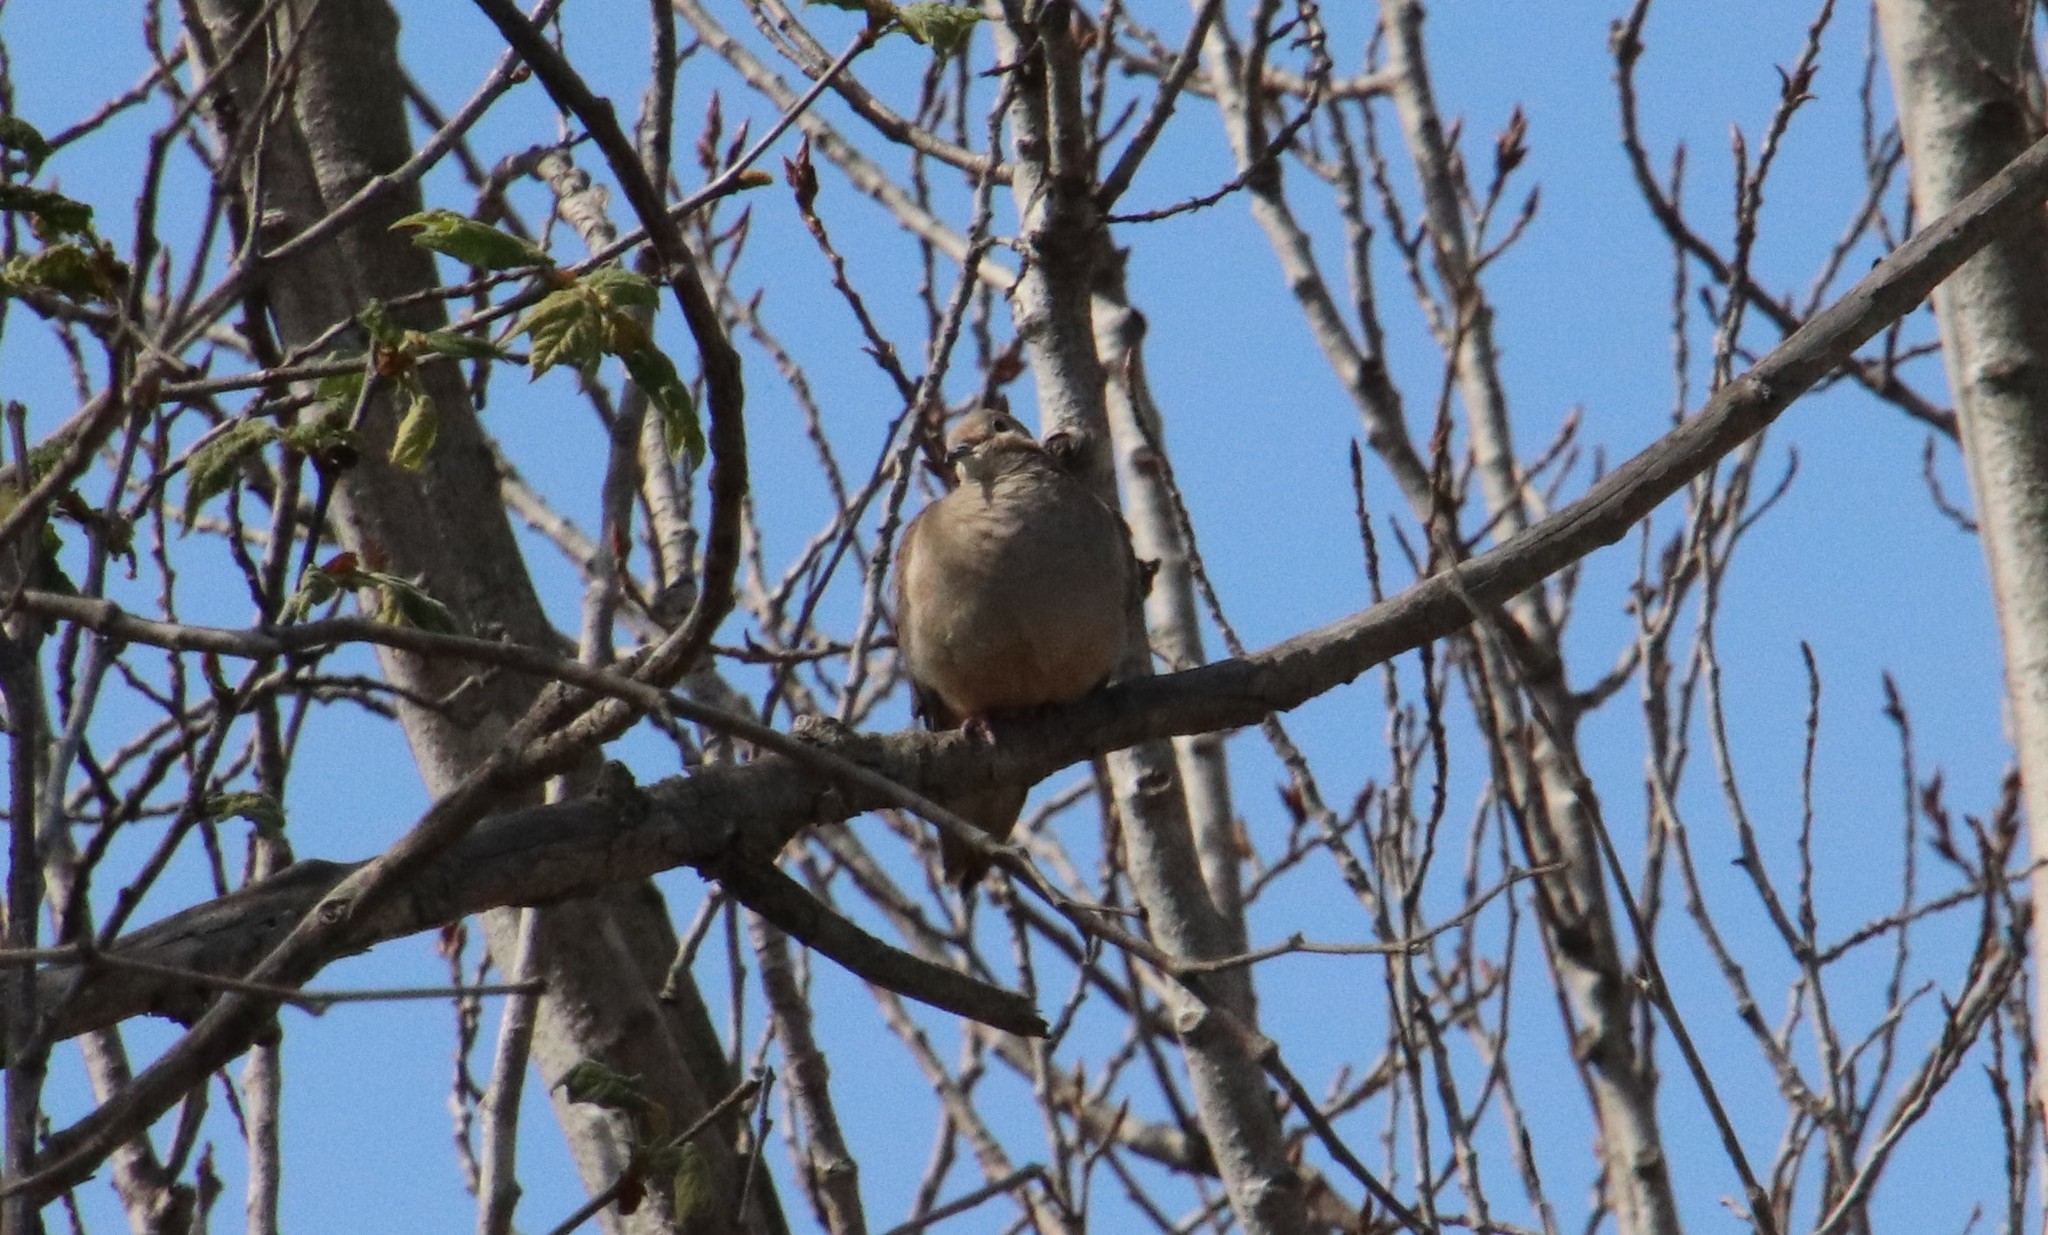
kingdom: Animalia
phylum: Chordata
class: Aves
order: Columbiformes
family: Columbidae
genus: Zenaida
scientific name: Zenaida macroura
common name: Mourning dove
